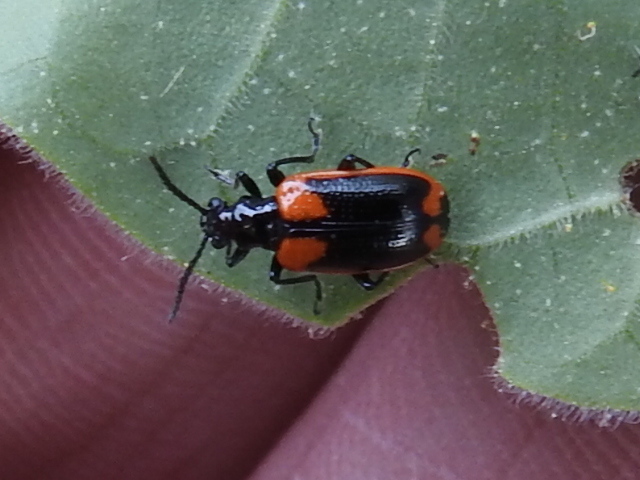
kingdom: Animalia
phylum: Arthropoda
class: Insecta
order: Coleoptera
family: Chrysomelidae
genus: Lema
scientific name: Lema confusa
